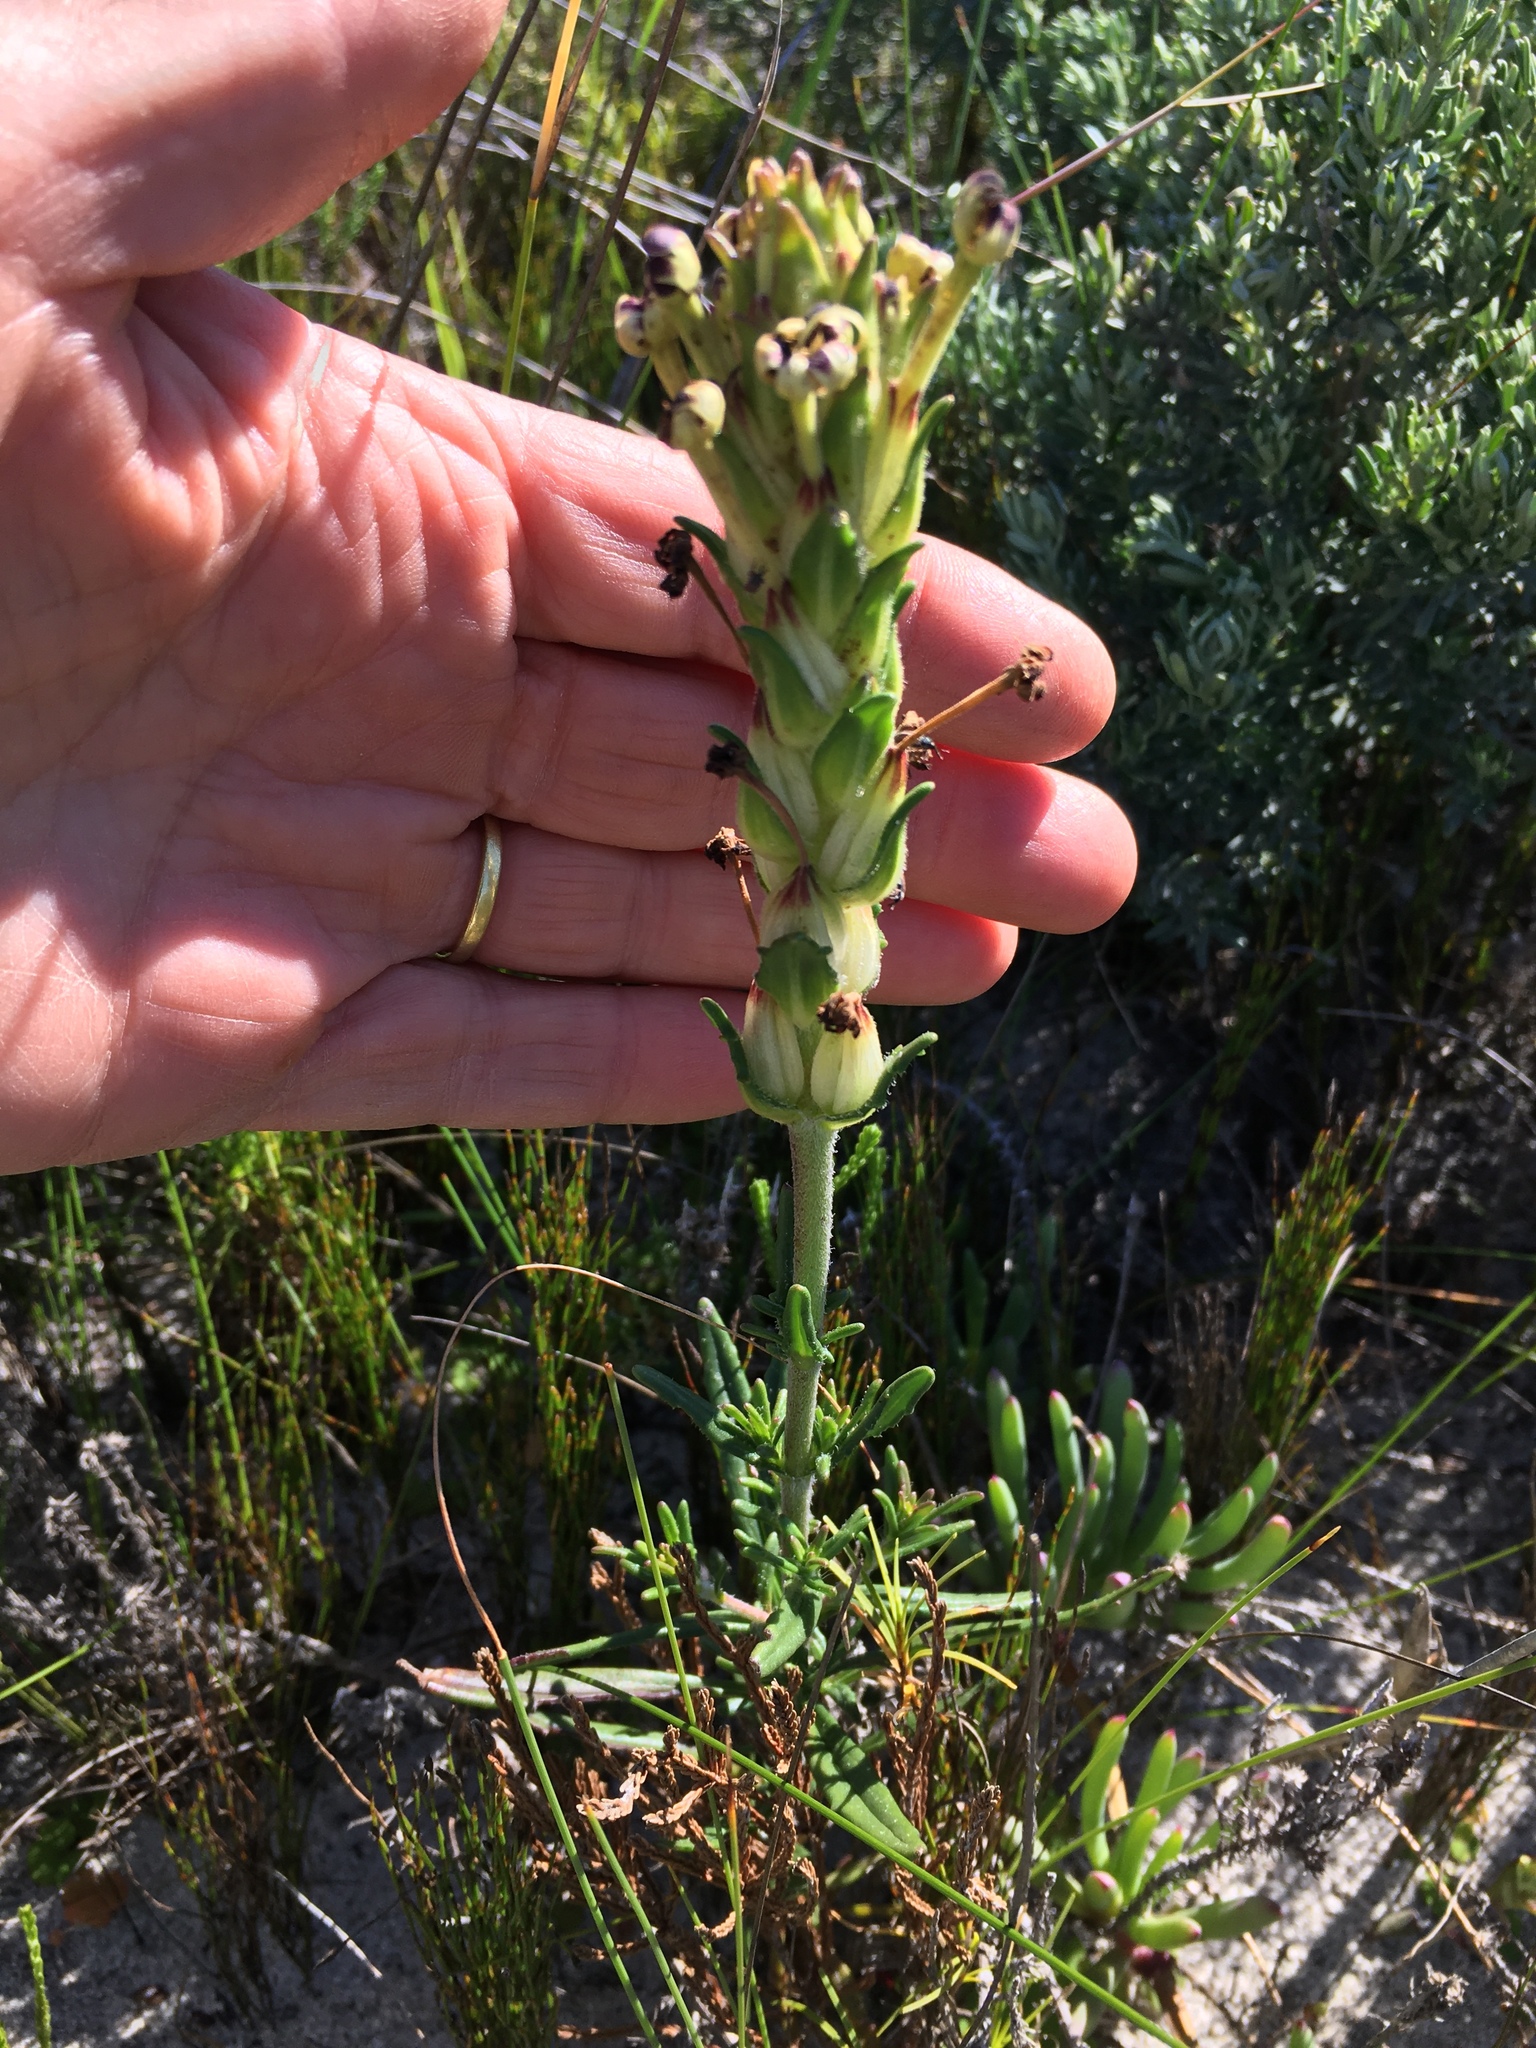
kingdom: Plantae
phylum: Tracheophyta
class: Magnoliopsida
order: Lamiales
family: Scrophulariaceae
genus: Zaluzianskya
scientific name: Zaluzianskya capensis
